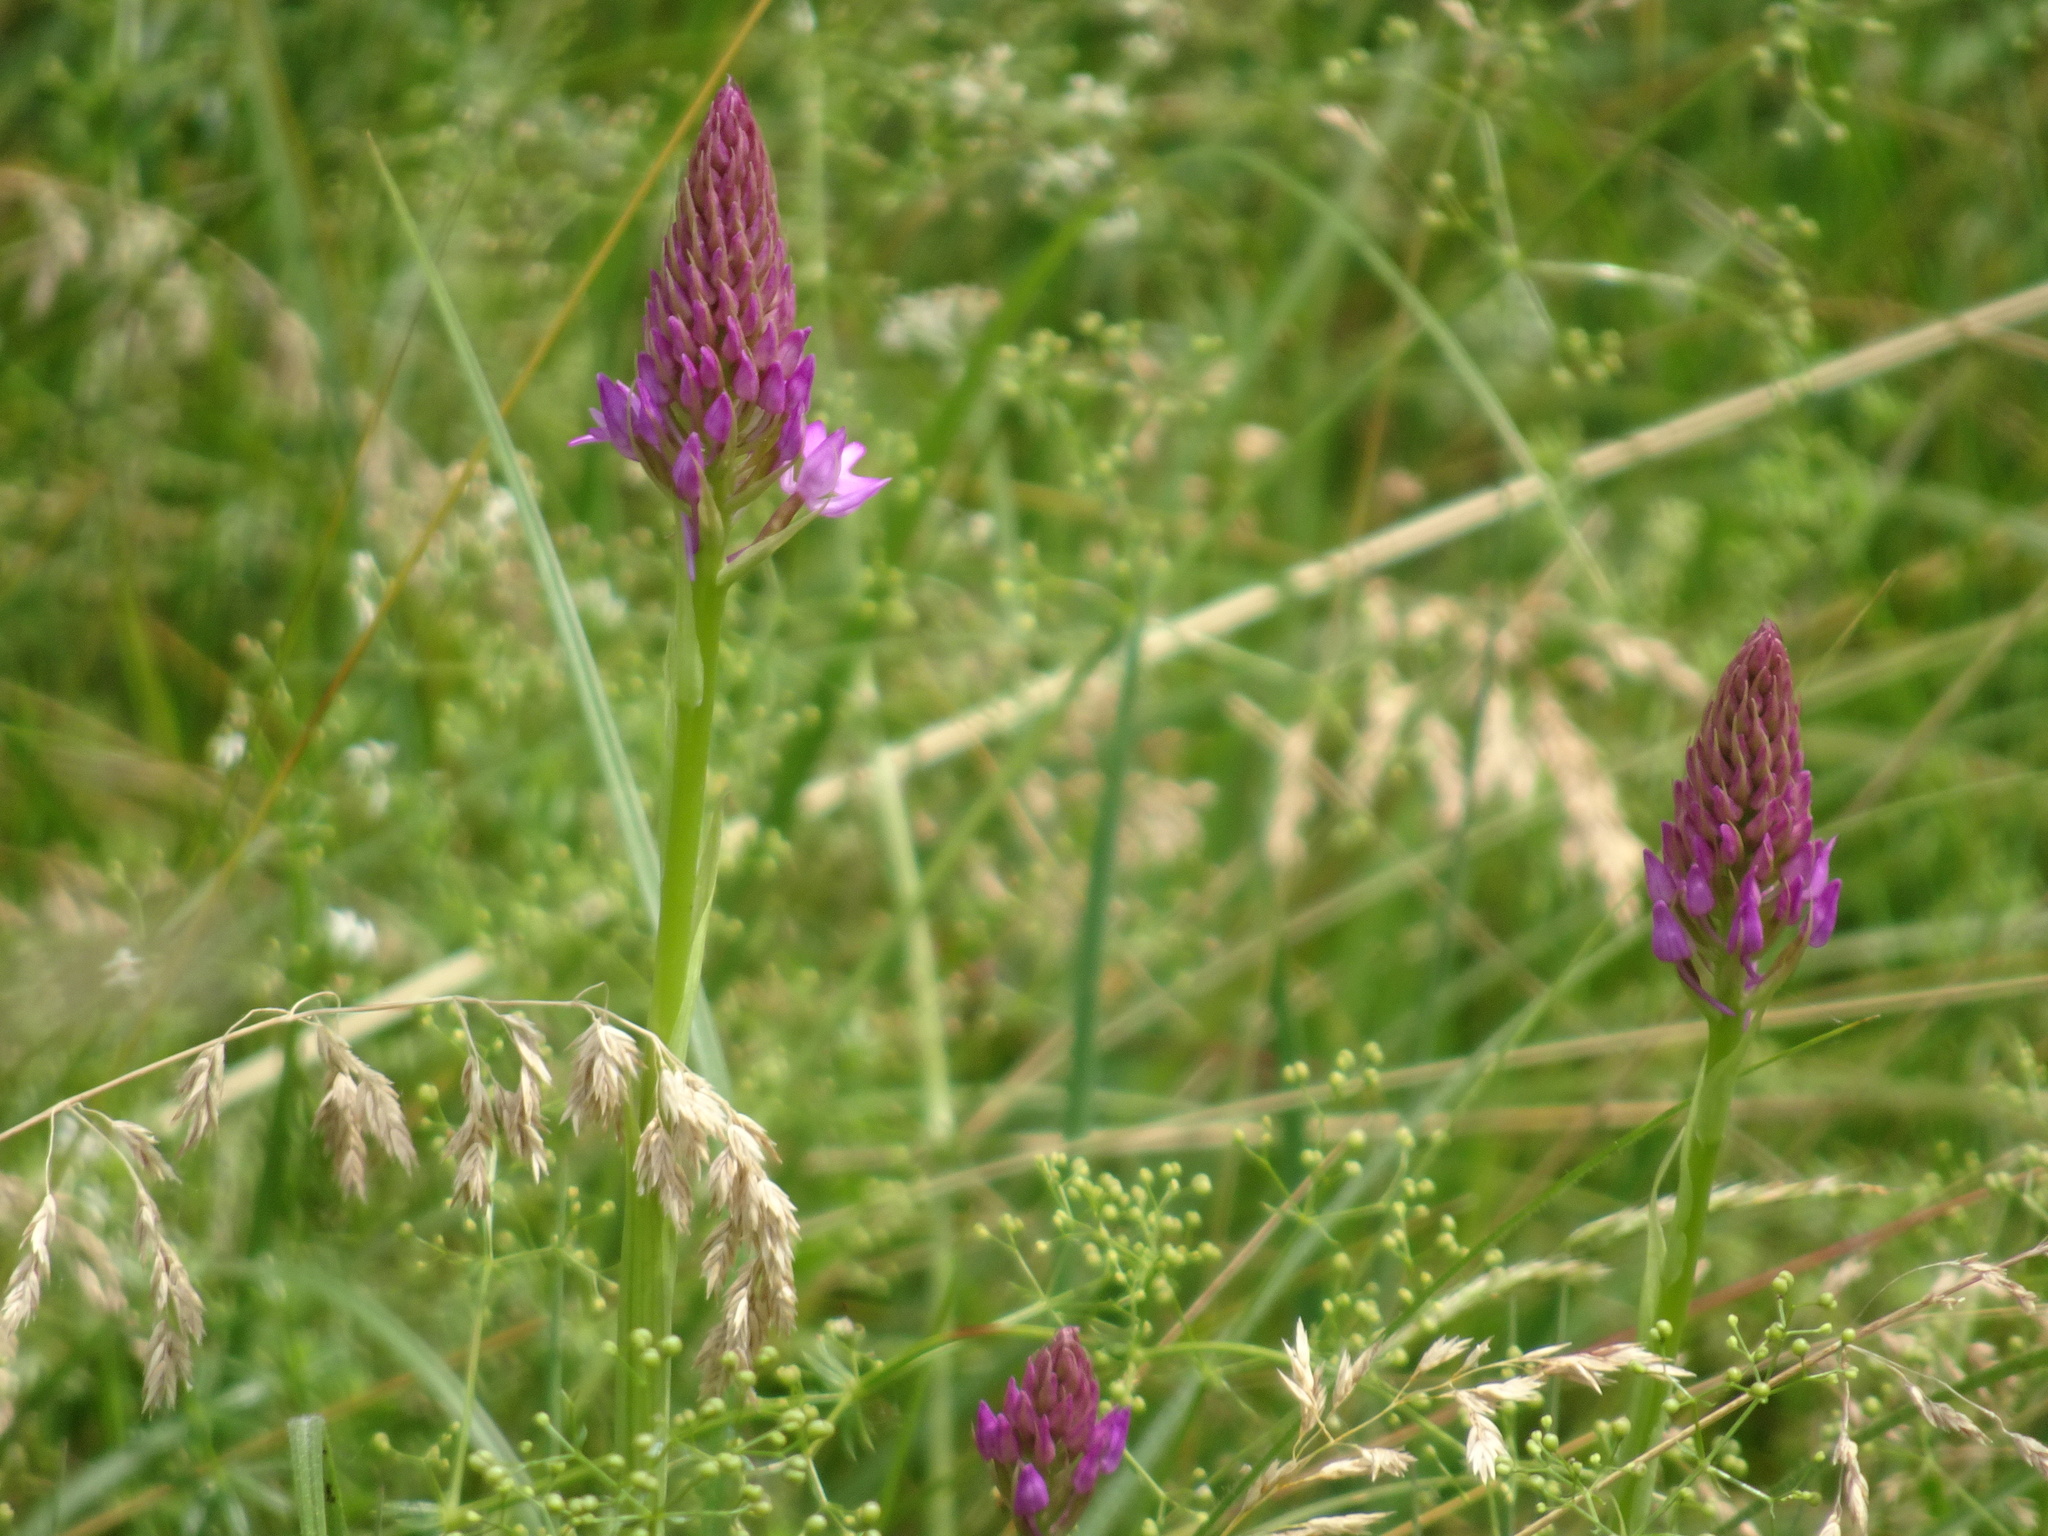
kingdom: Plantae
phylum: Tracheophyta
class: Liliopsida
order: Asparagales
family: Orchidaceae
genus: Anacamptis
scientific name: Anacamptis pyramidalis
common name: Pyramidal orchid
